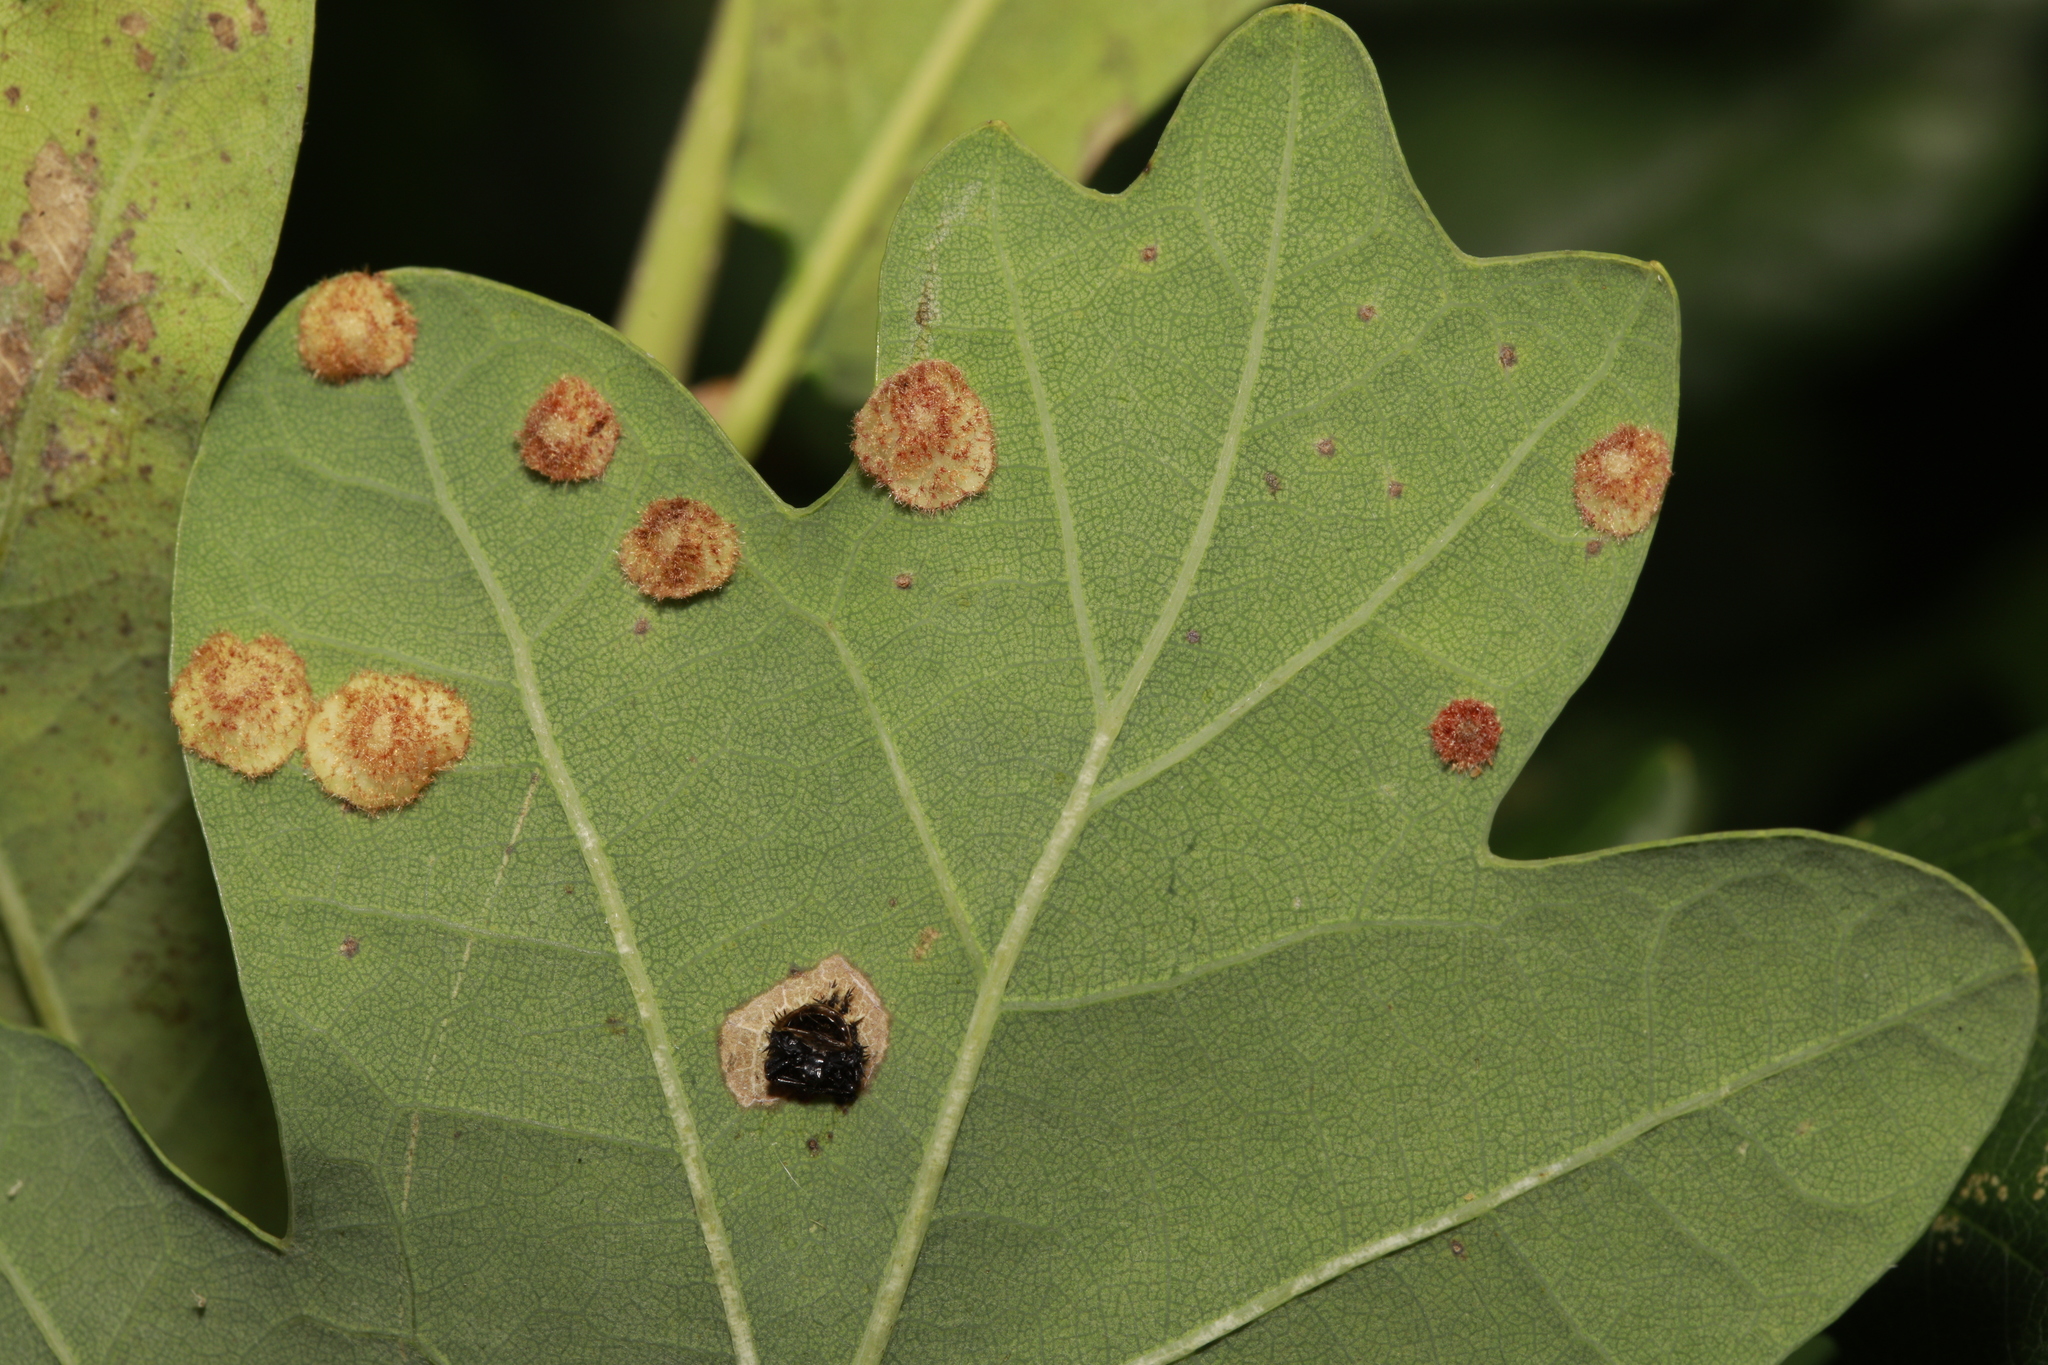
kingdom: Animalia
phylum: Arthropoda
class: Insecta
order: Hymenoptera
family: Cynipidae
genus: Neuroterus
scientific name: Neuroterus quercusbaccarum
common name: Common spangle gall
